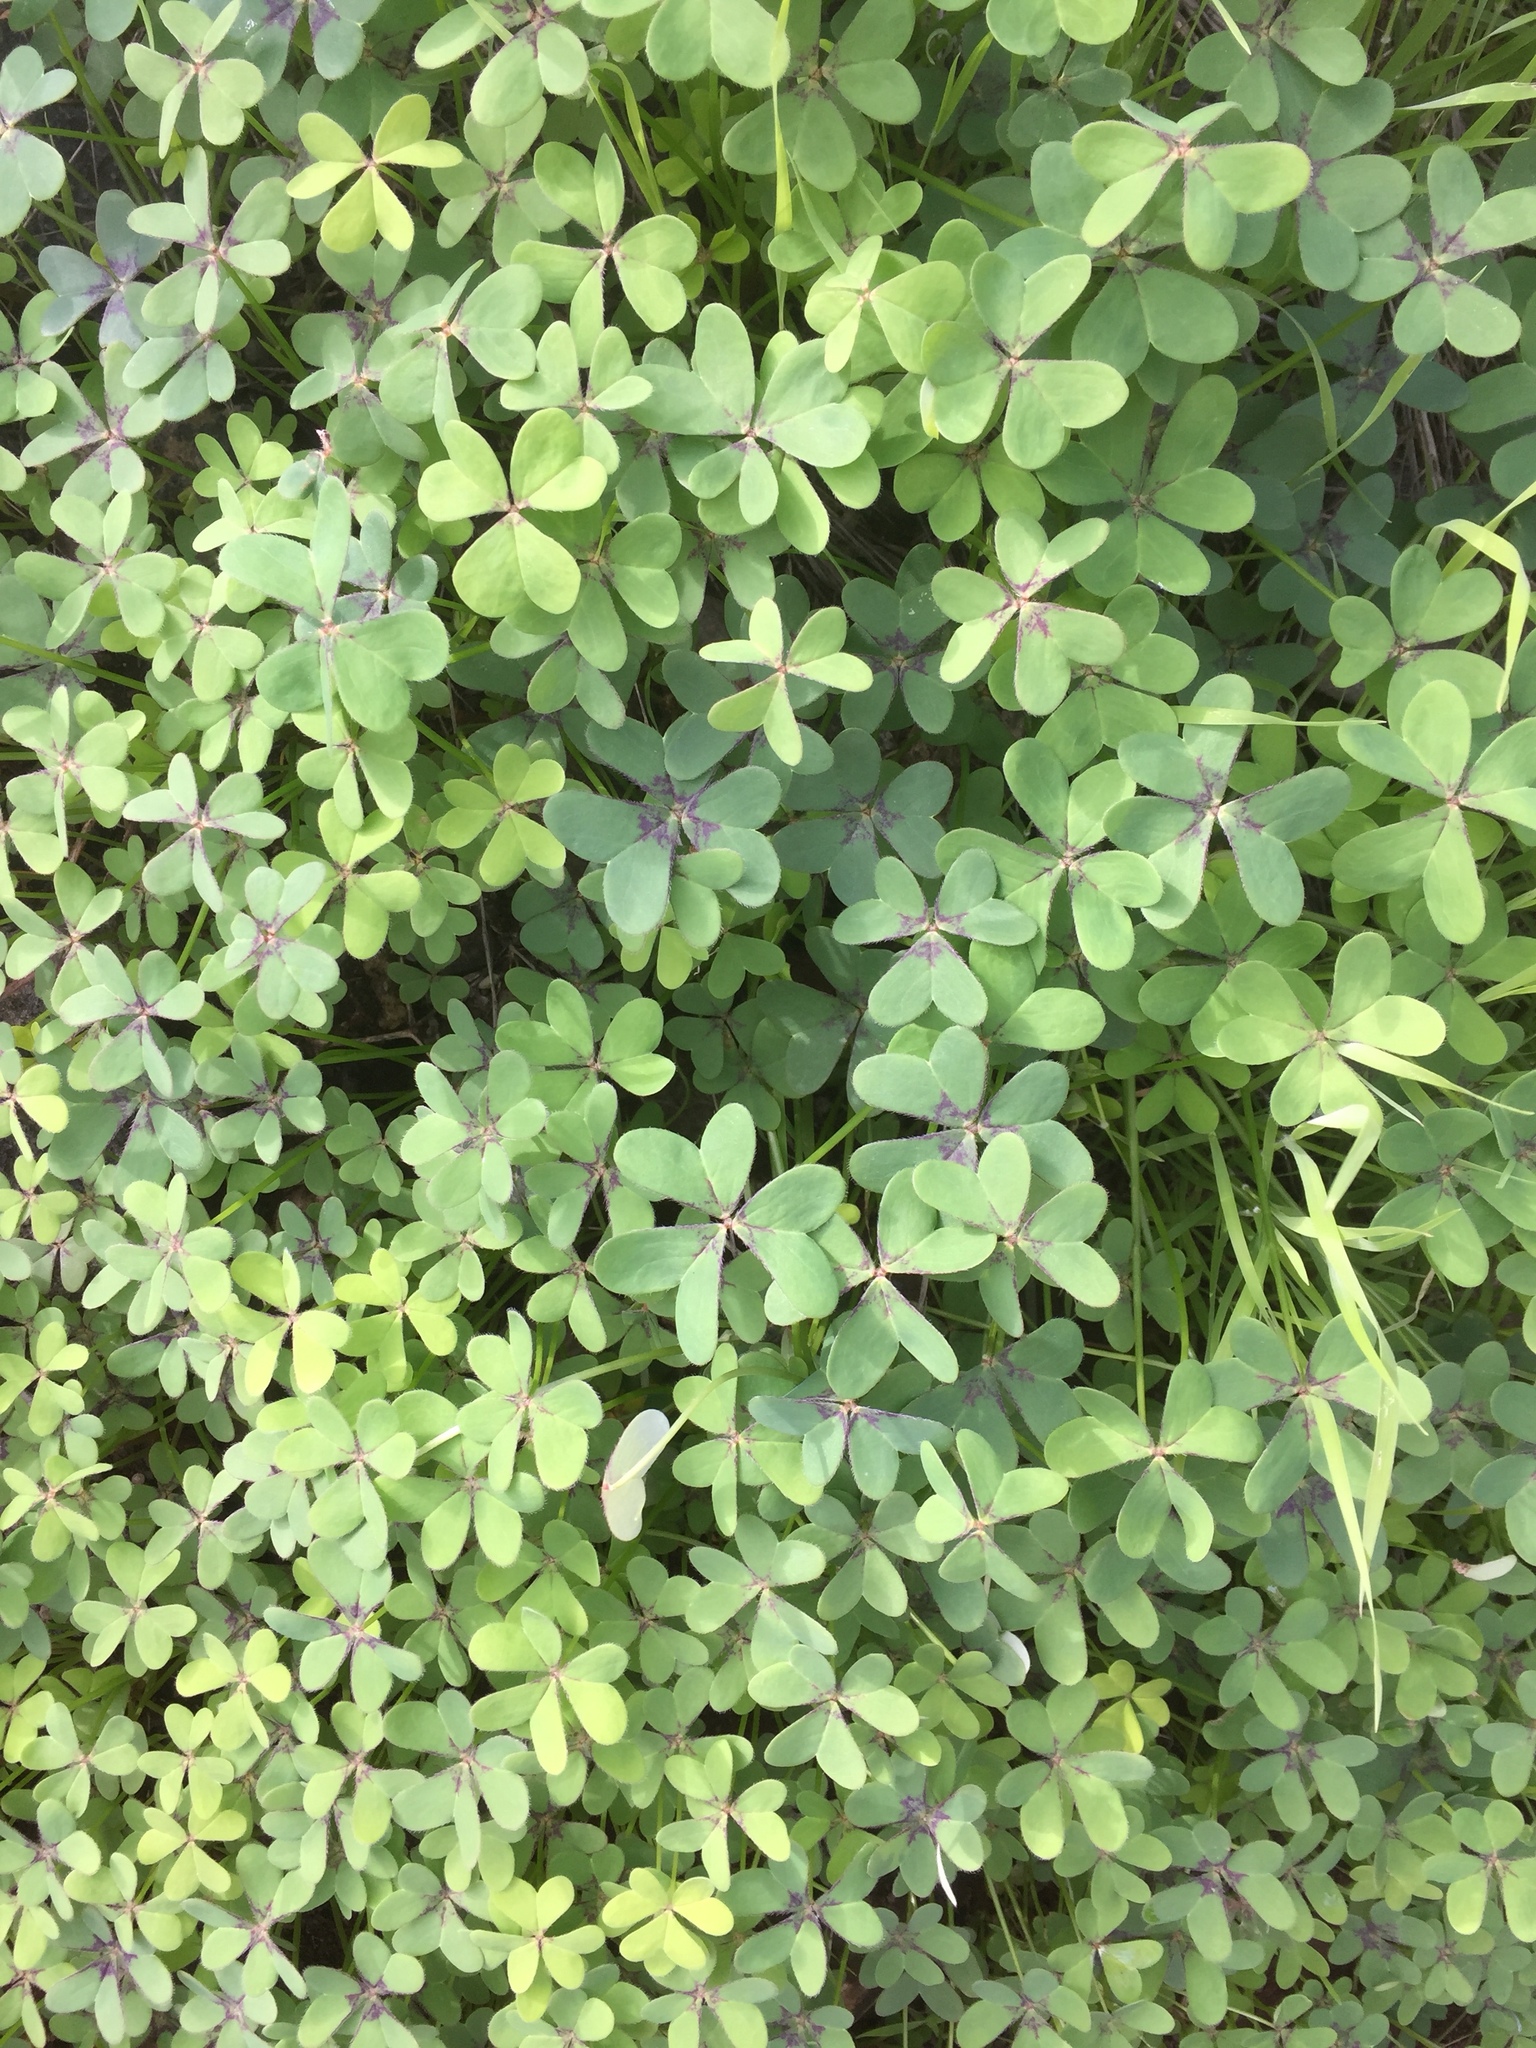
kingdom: Plantae
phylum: Tracheophyta
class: Magnoliopsida
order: Oxalidales
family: Oxalidaceae
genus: Oxalis
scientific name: Oxalis pes-caprae
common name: Bermuda-buttercup
